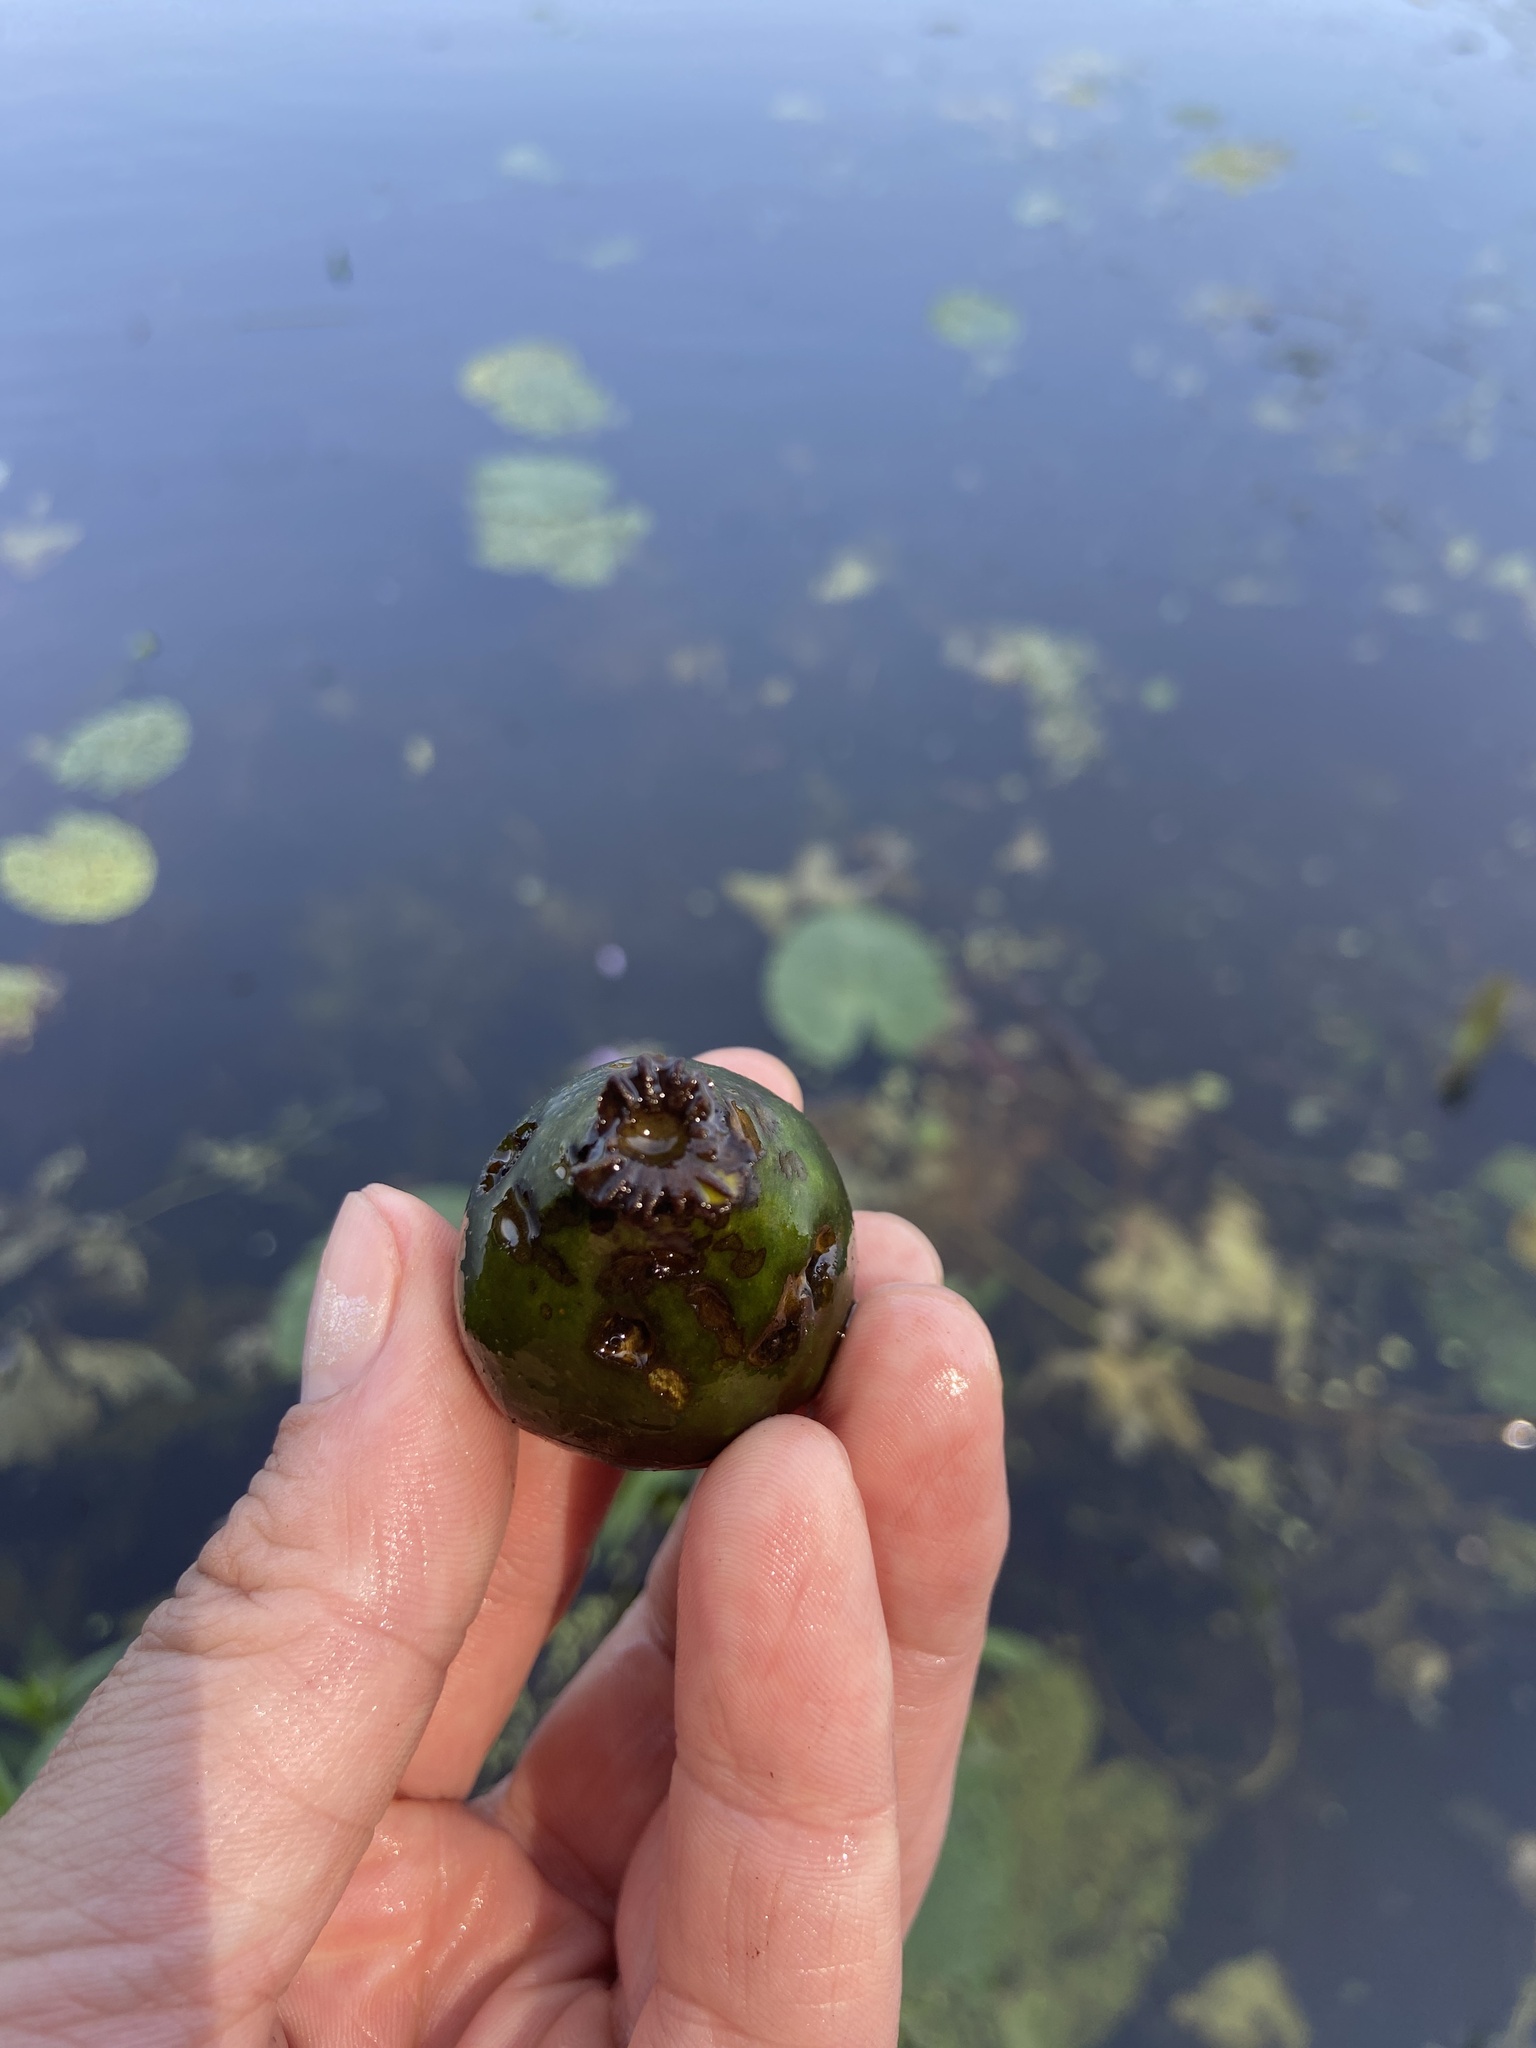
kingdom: Plantae
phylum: Tracheophyta
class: Magnoliopsida
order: Nymphaeales
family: Nymphaeaceae
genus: Nuphar
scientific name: Nuphar lutea
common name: Yellow water-lily
